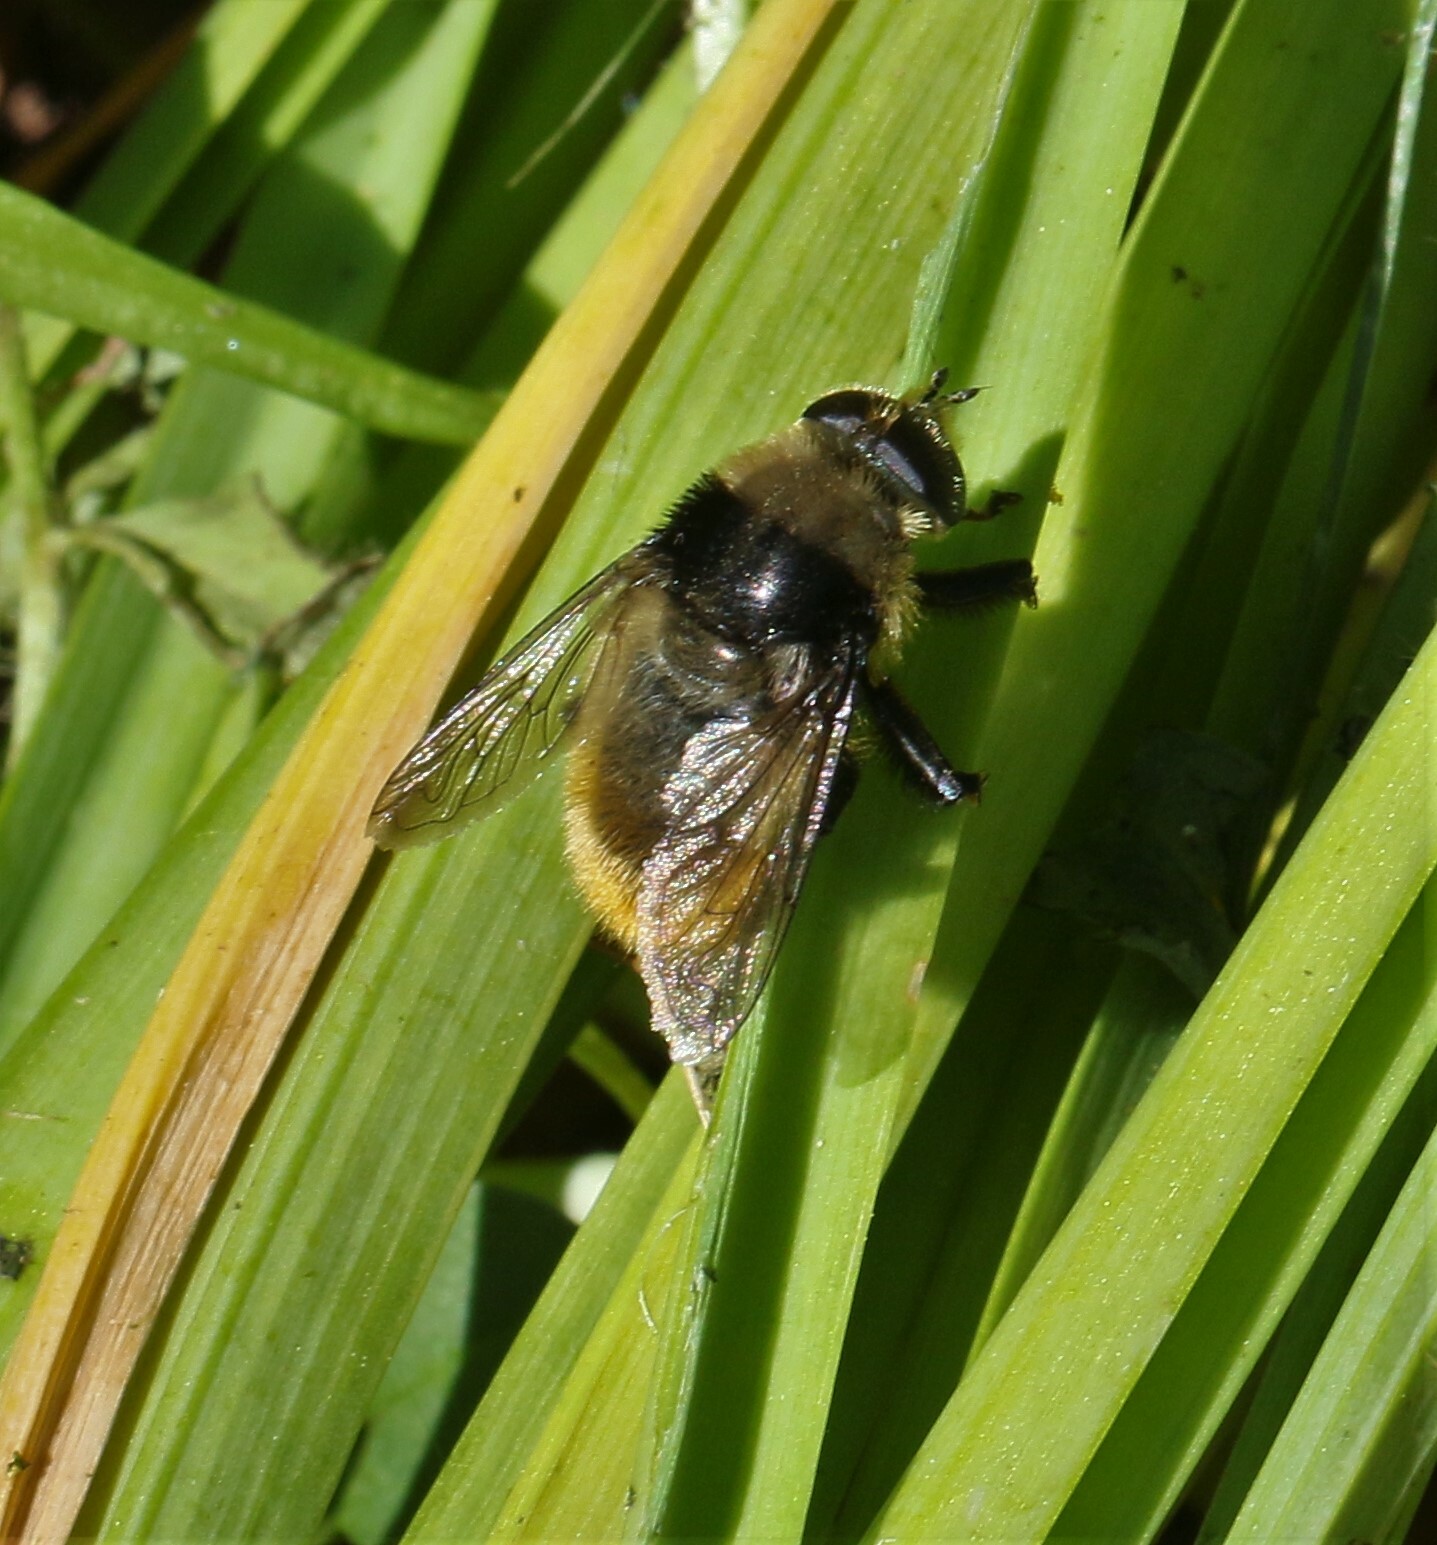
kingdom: Animalia
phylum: Arthropoda
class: Insecta
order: Diptera
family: Syrphidae
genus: Merodon
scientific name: Merodon equestris
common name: Greater bulb-fly
